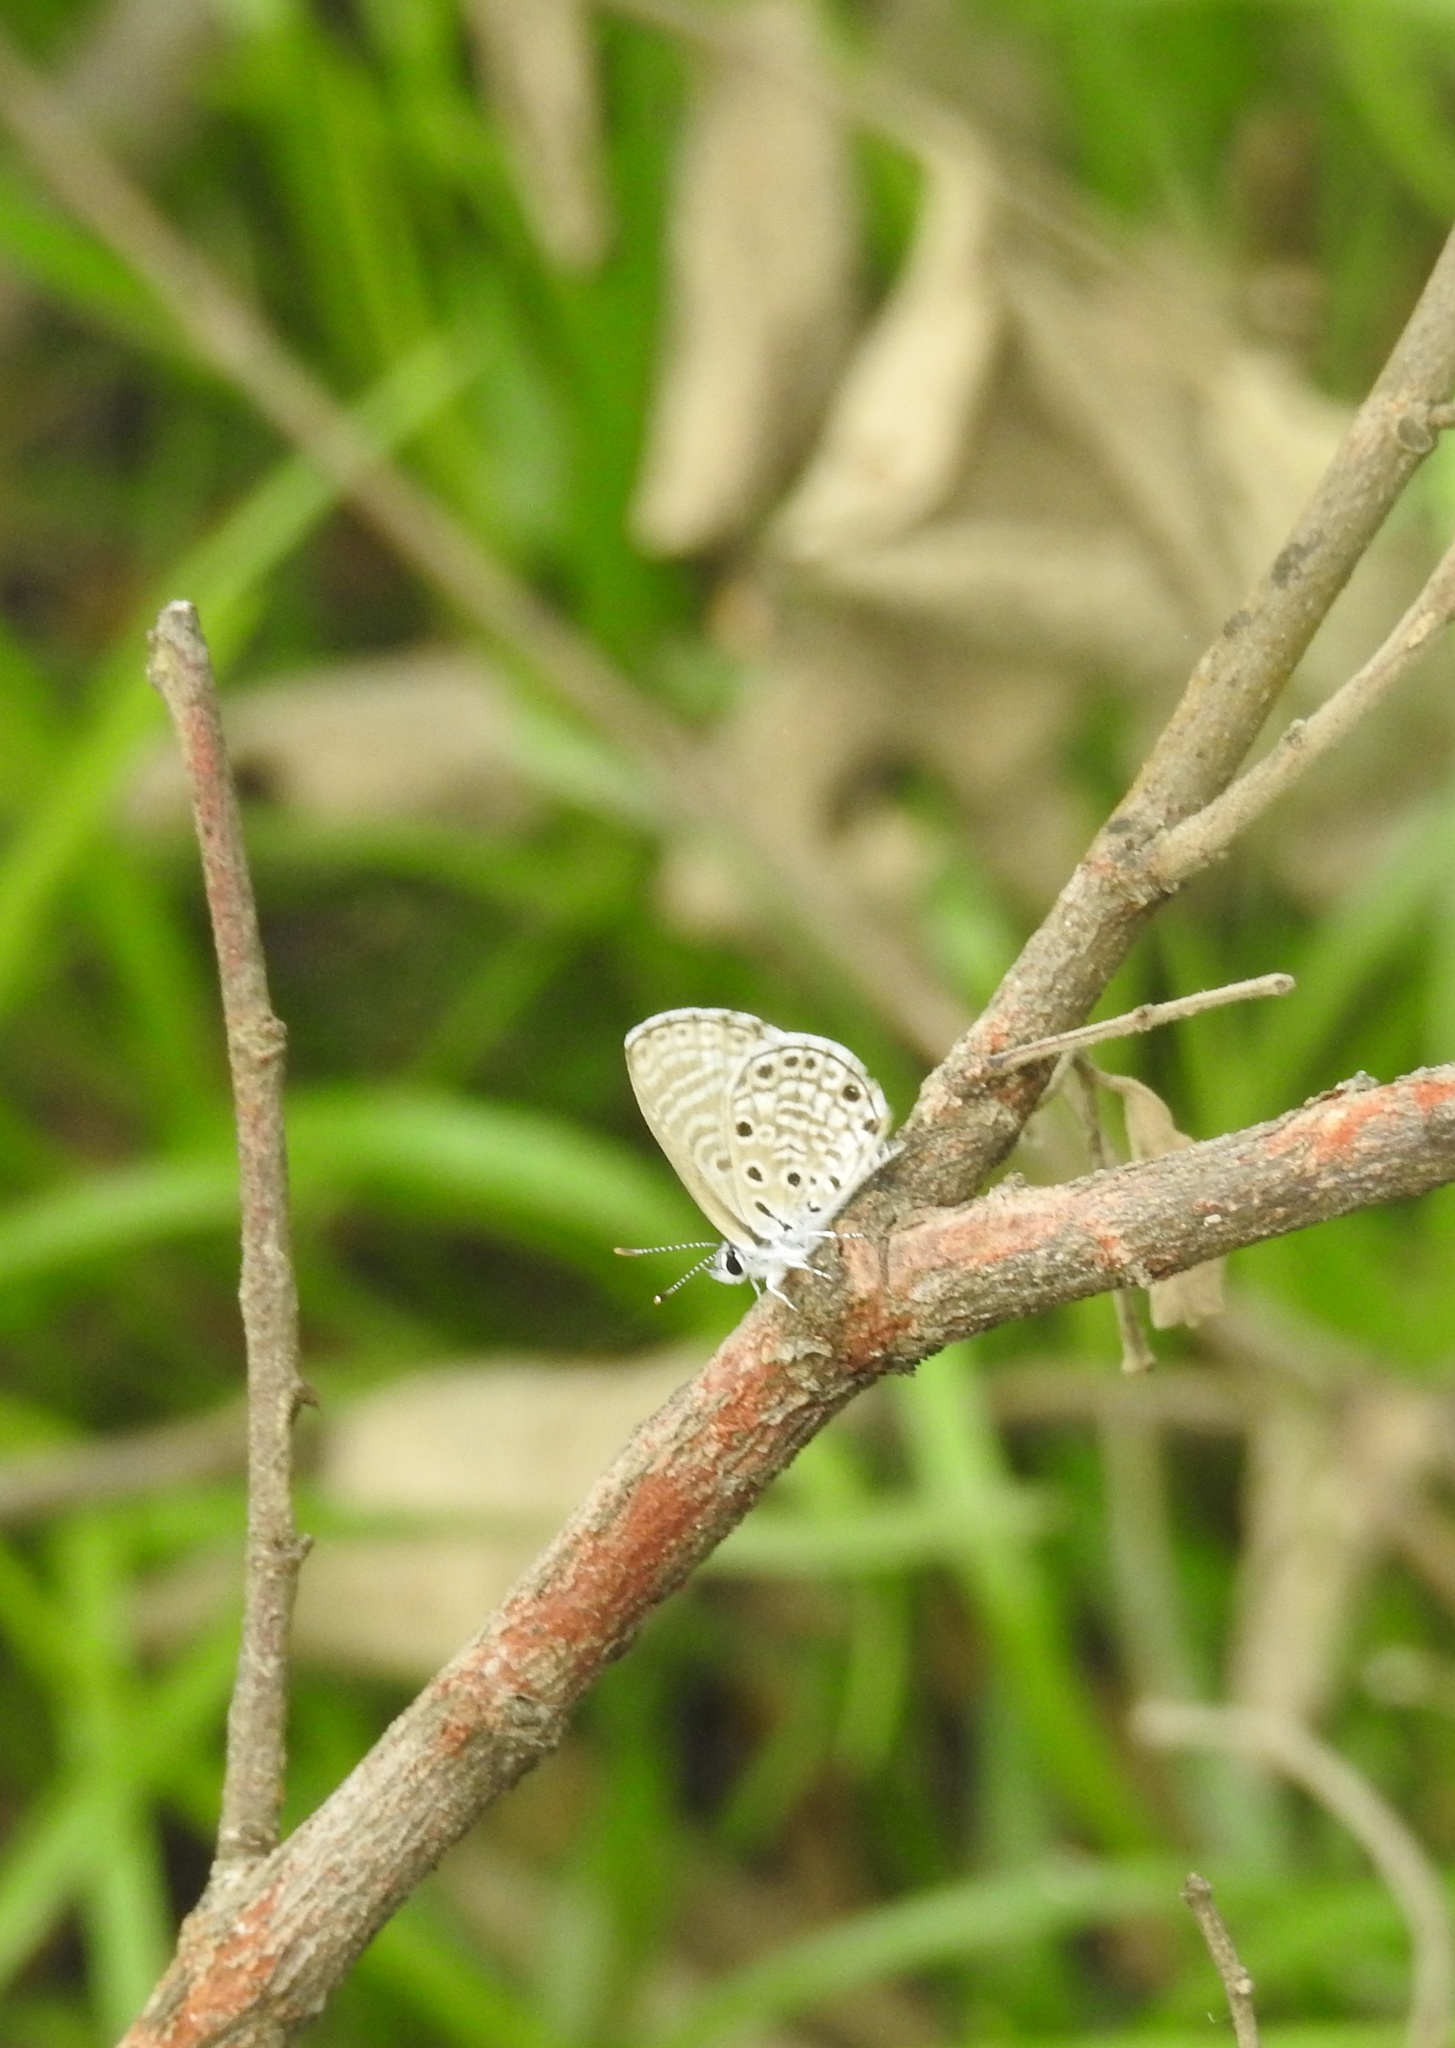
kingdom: Animalia
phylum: Arthropoda
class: Insecta
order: Lepidoptera
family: Lycaenidae
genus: Azanus
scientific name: Azanus jesous
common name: African babul blue
